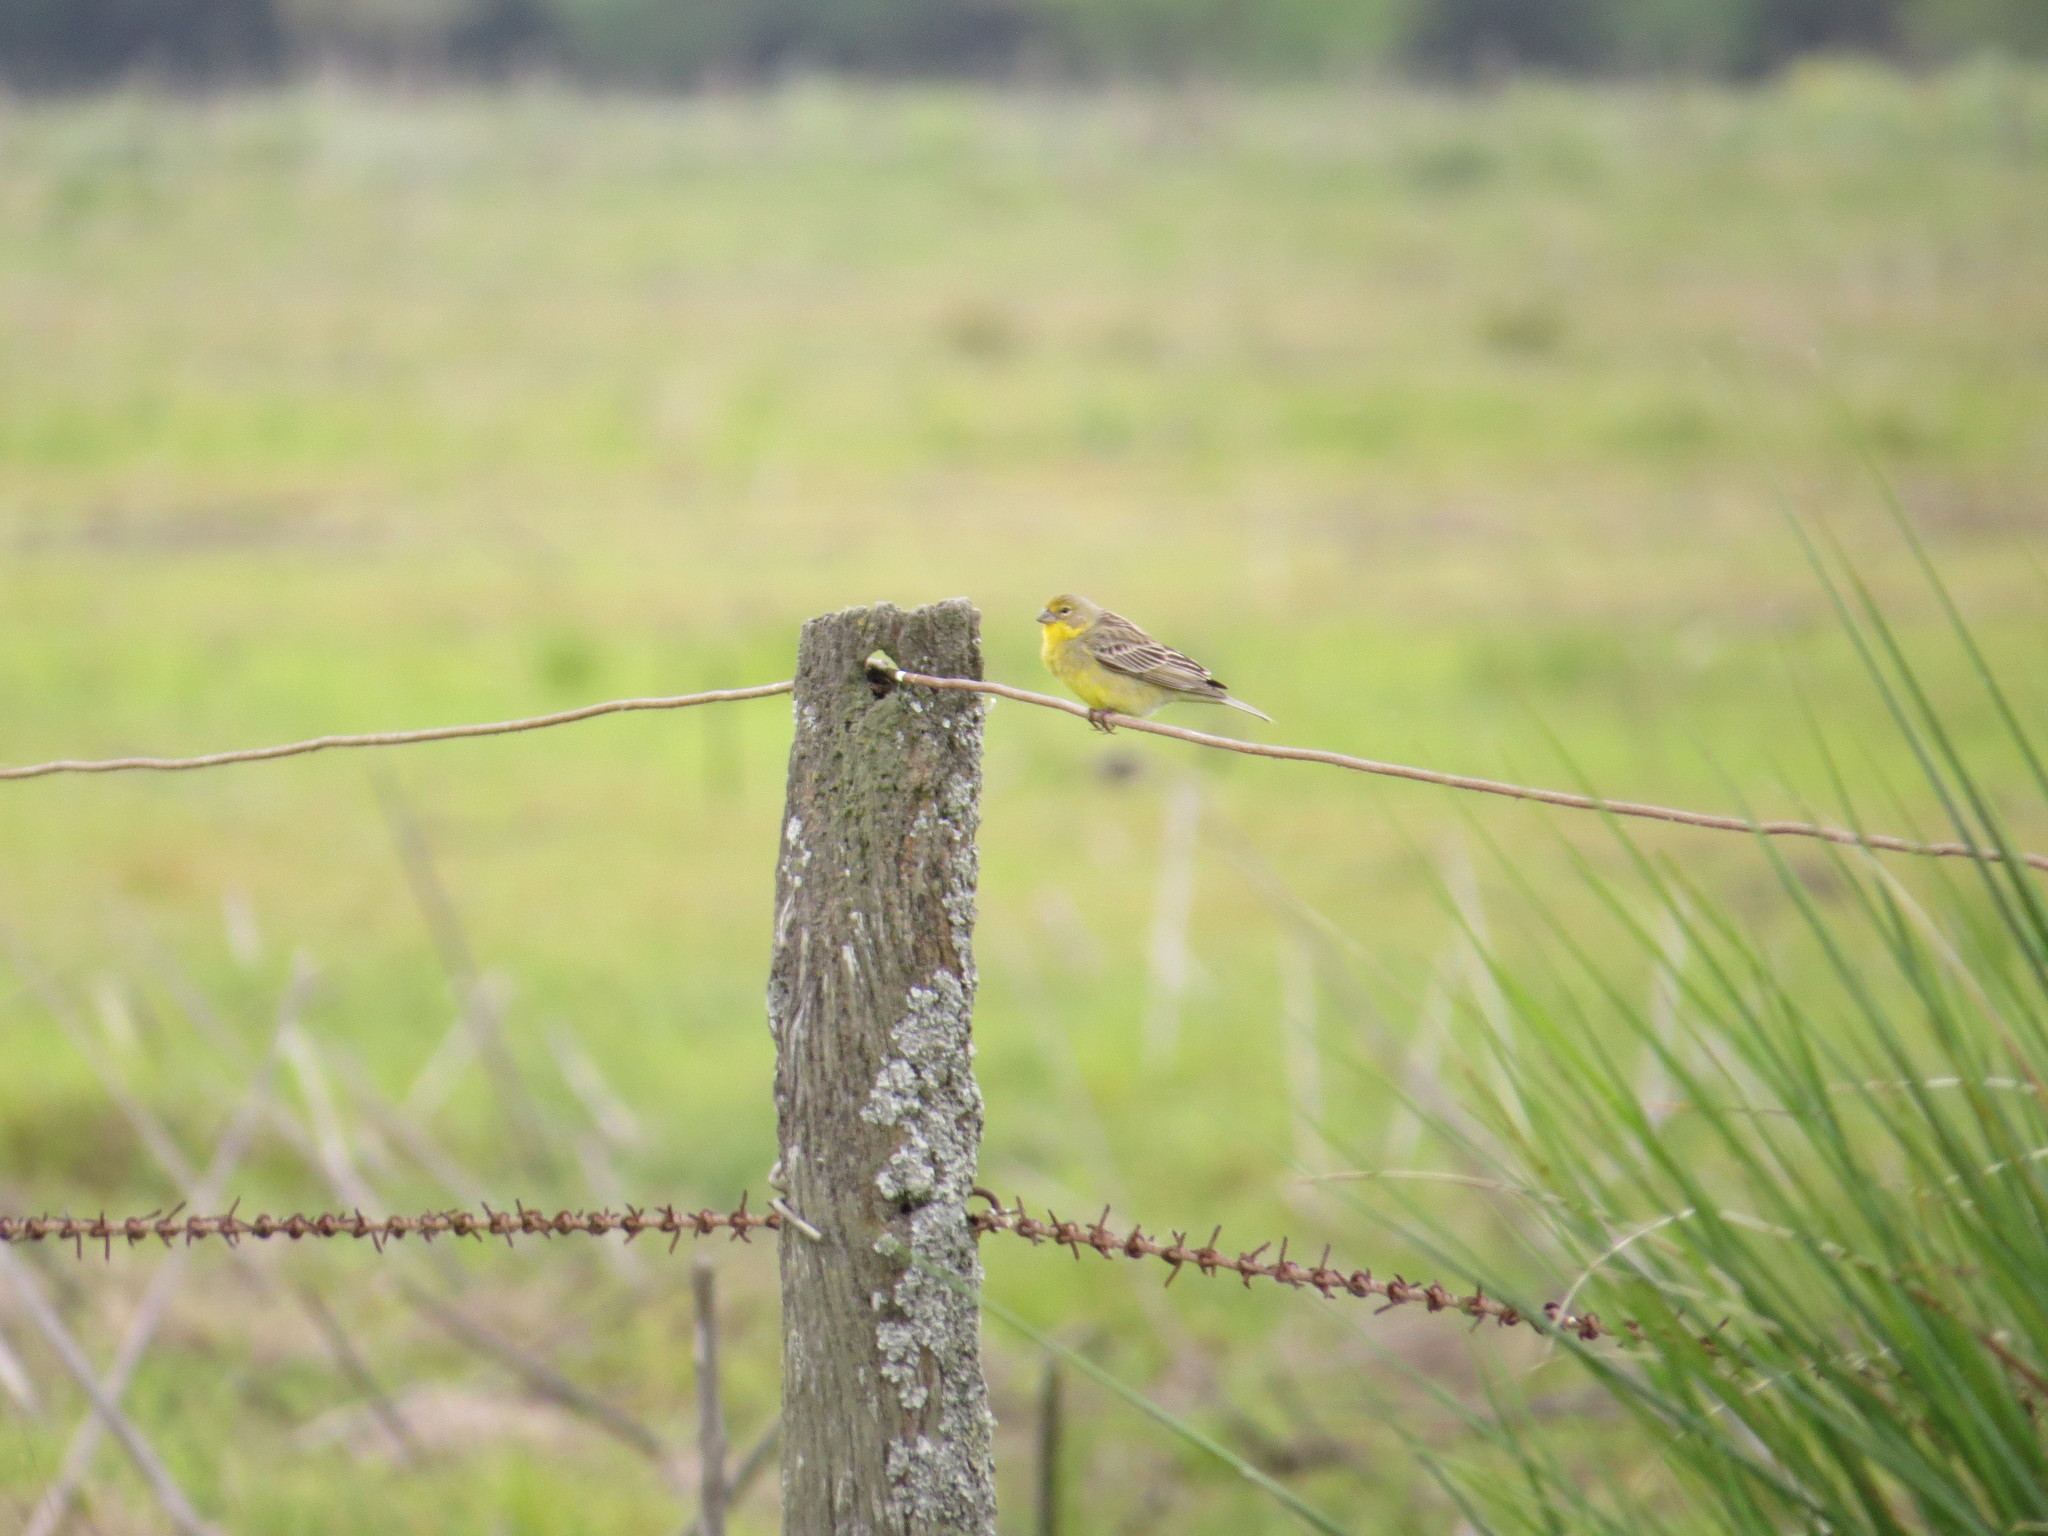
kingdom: Animalia
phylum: Chordata
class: Aves
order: Passeriformes
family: Thraupidae
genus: Sicalis
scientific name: Sicalis luteola
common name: Grassland yellow-finch
